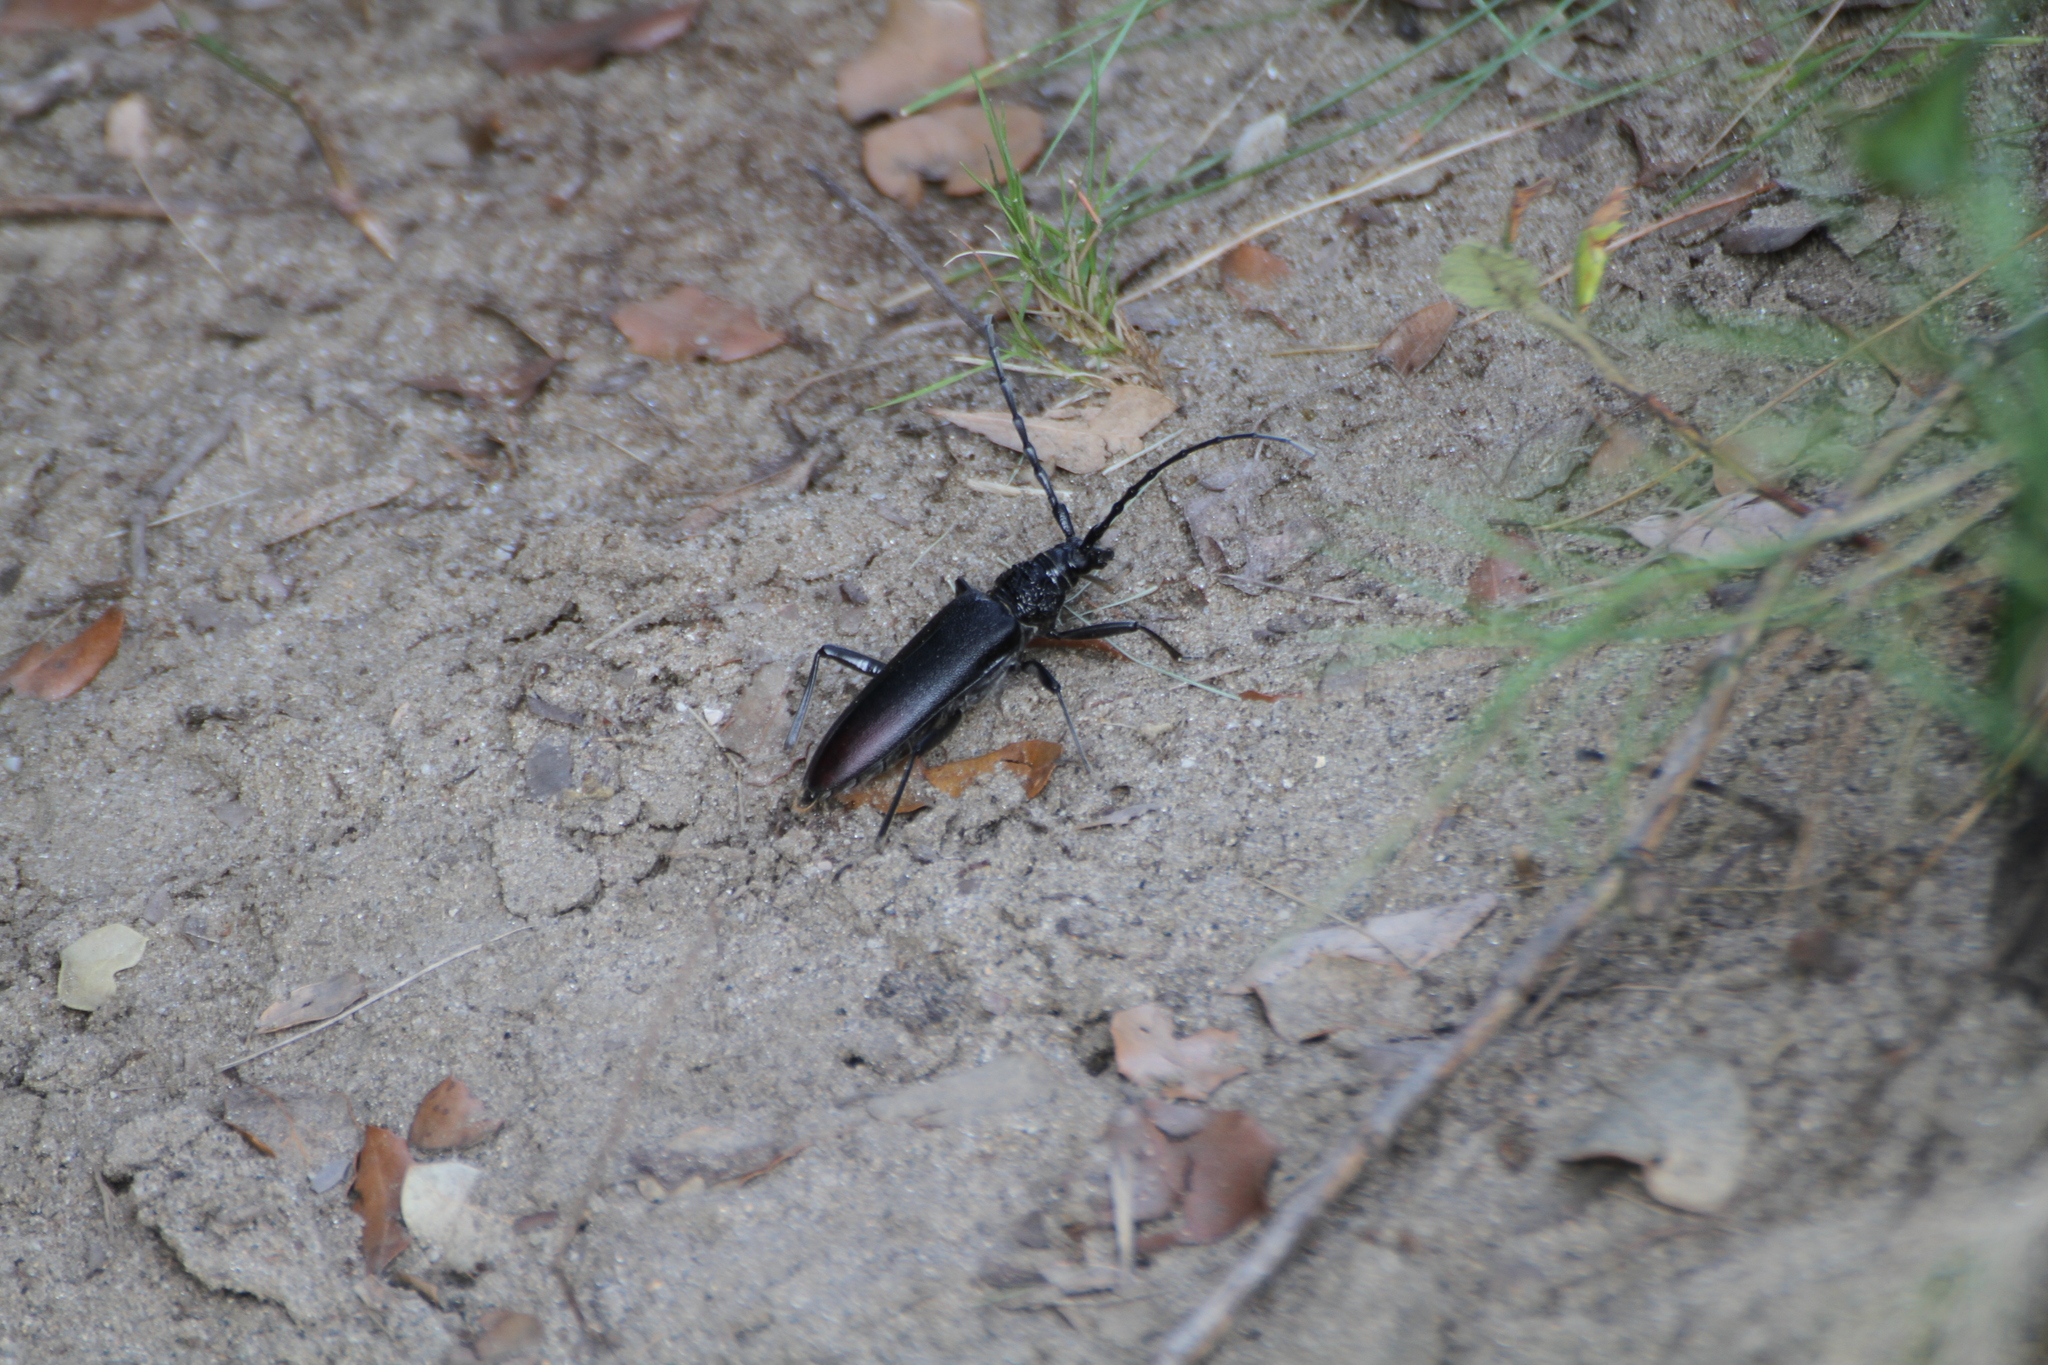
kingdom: Animalia
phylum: Arthropoda
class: Insecta
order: Coleoptera
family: Cerambycidae
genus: Cerambyx
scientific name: Cerambyx cerdo
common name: Cerambyx longicorn
